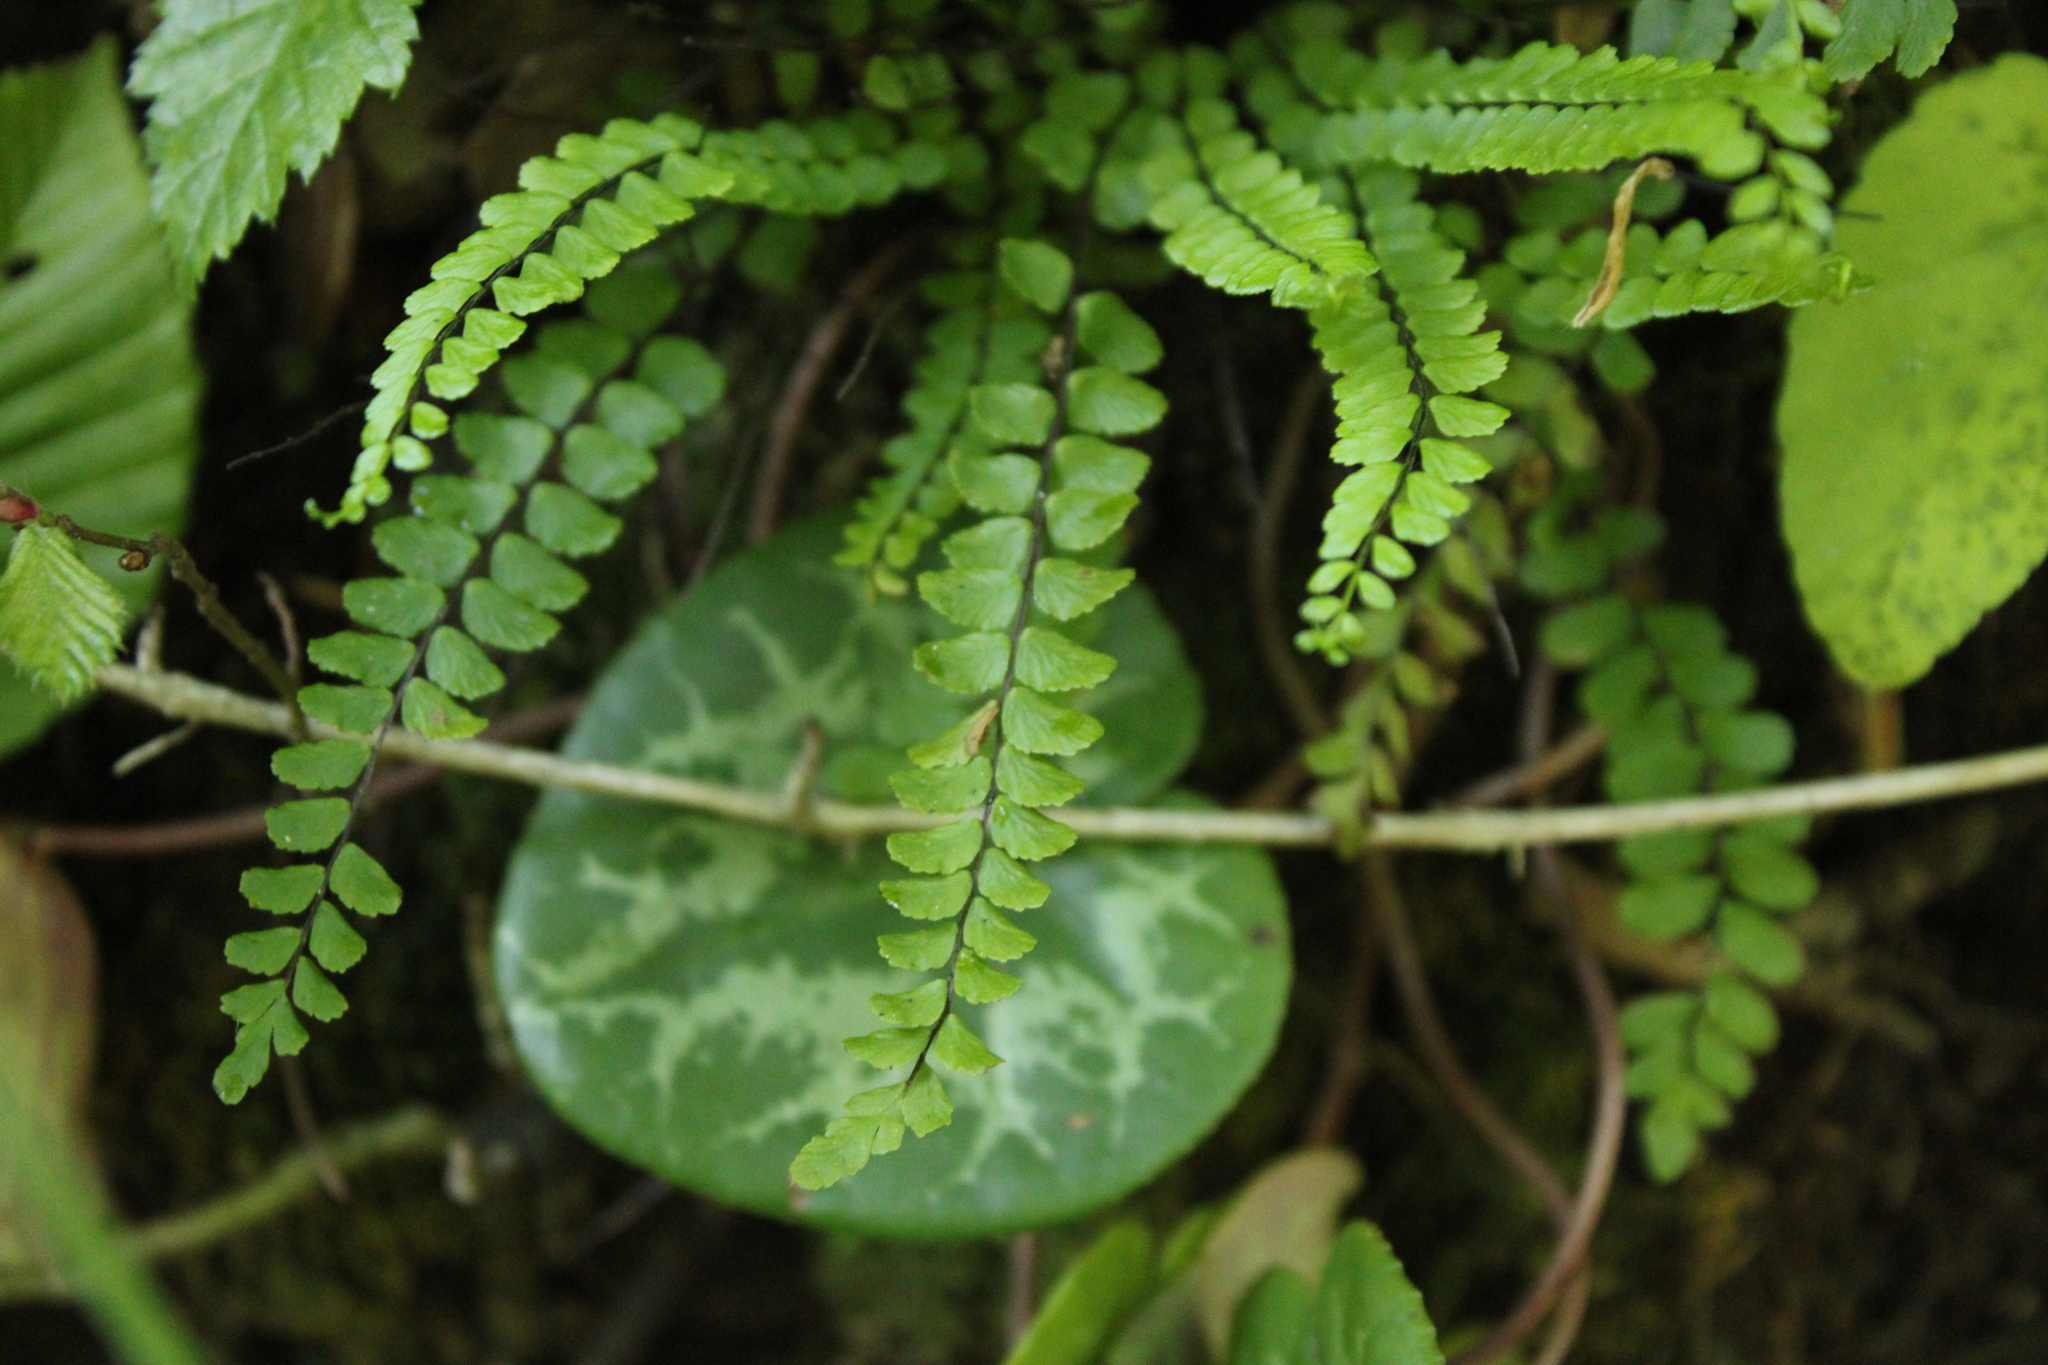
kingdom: Plantae
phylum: Tracheophyta
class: Polypodiopsida
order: Polypodiales
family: Aspleniaceae
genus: Asplenium
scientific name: Asplenium trichomanes
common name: Maidenhair spleenwort
